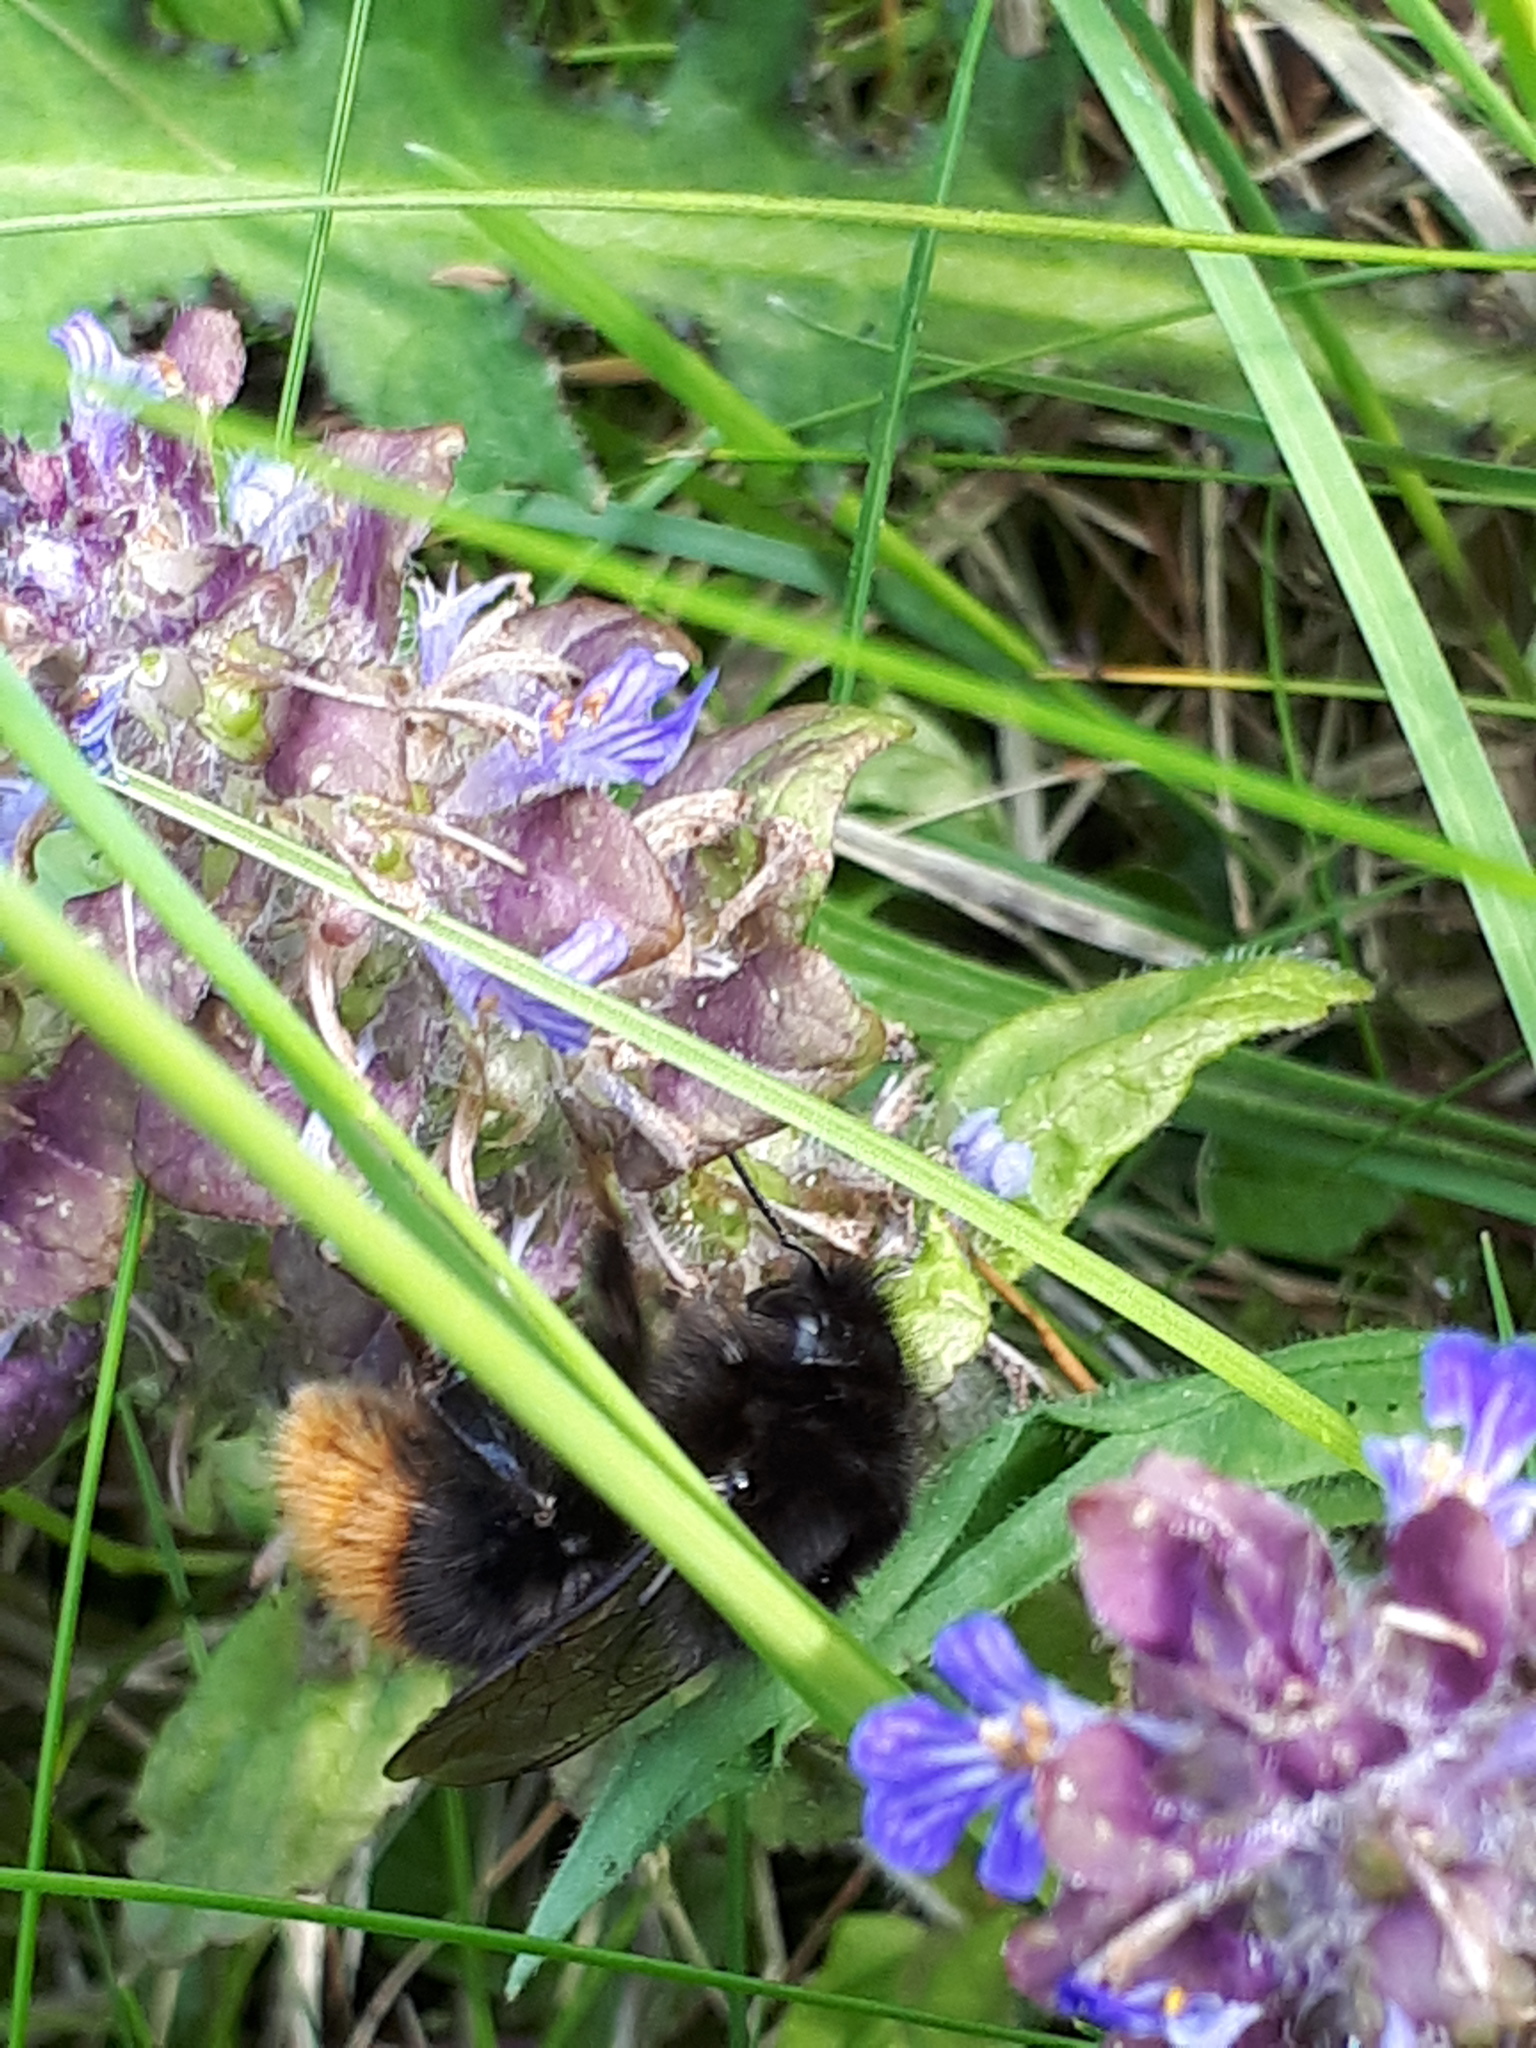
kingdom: Animalia
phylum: Arthropoda
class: Insecta
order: Hymenoptera
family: Apidae
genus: Bombus
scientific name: Bombus wurflenii
